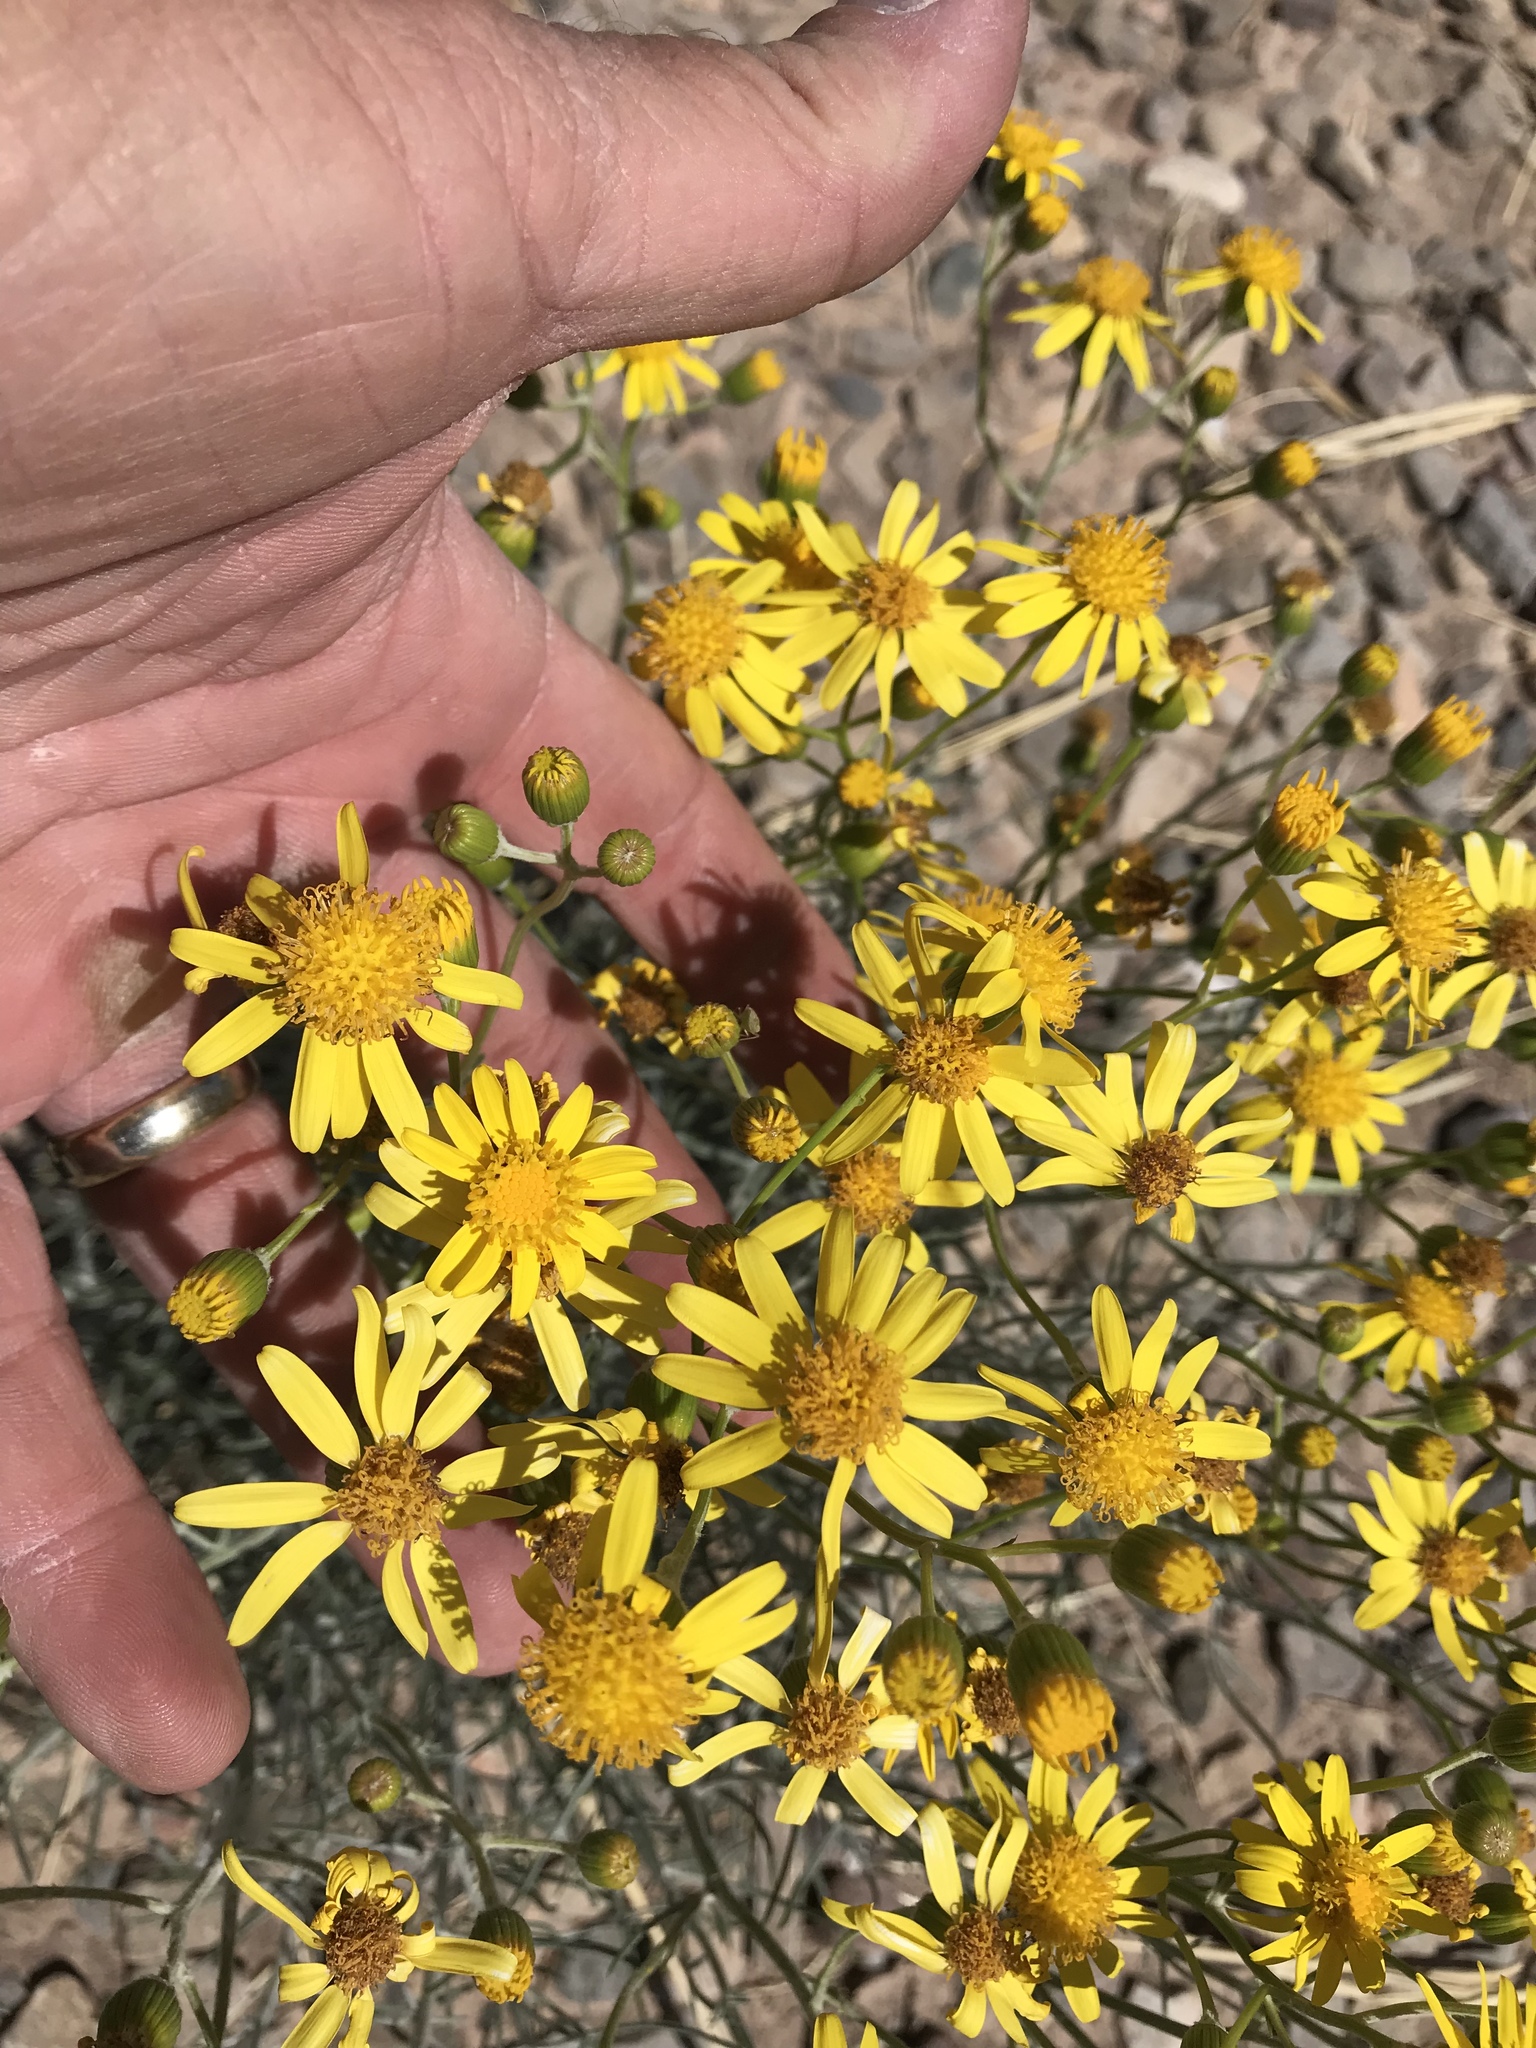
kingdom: Plantae
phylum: Tracheophyta
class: Magnoliopsida
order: Asterales
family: Asteraceae
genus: Senecio
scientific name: Senecio flaccidus
